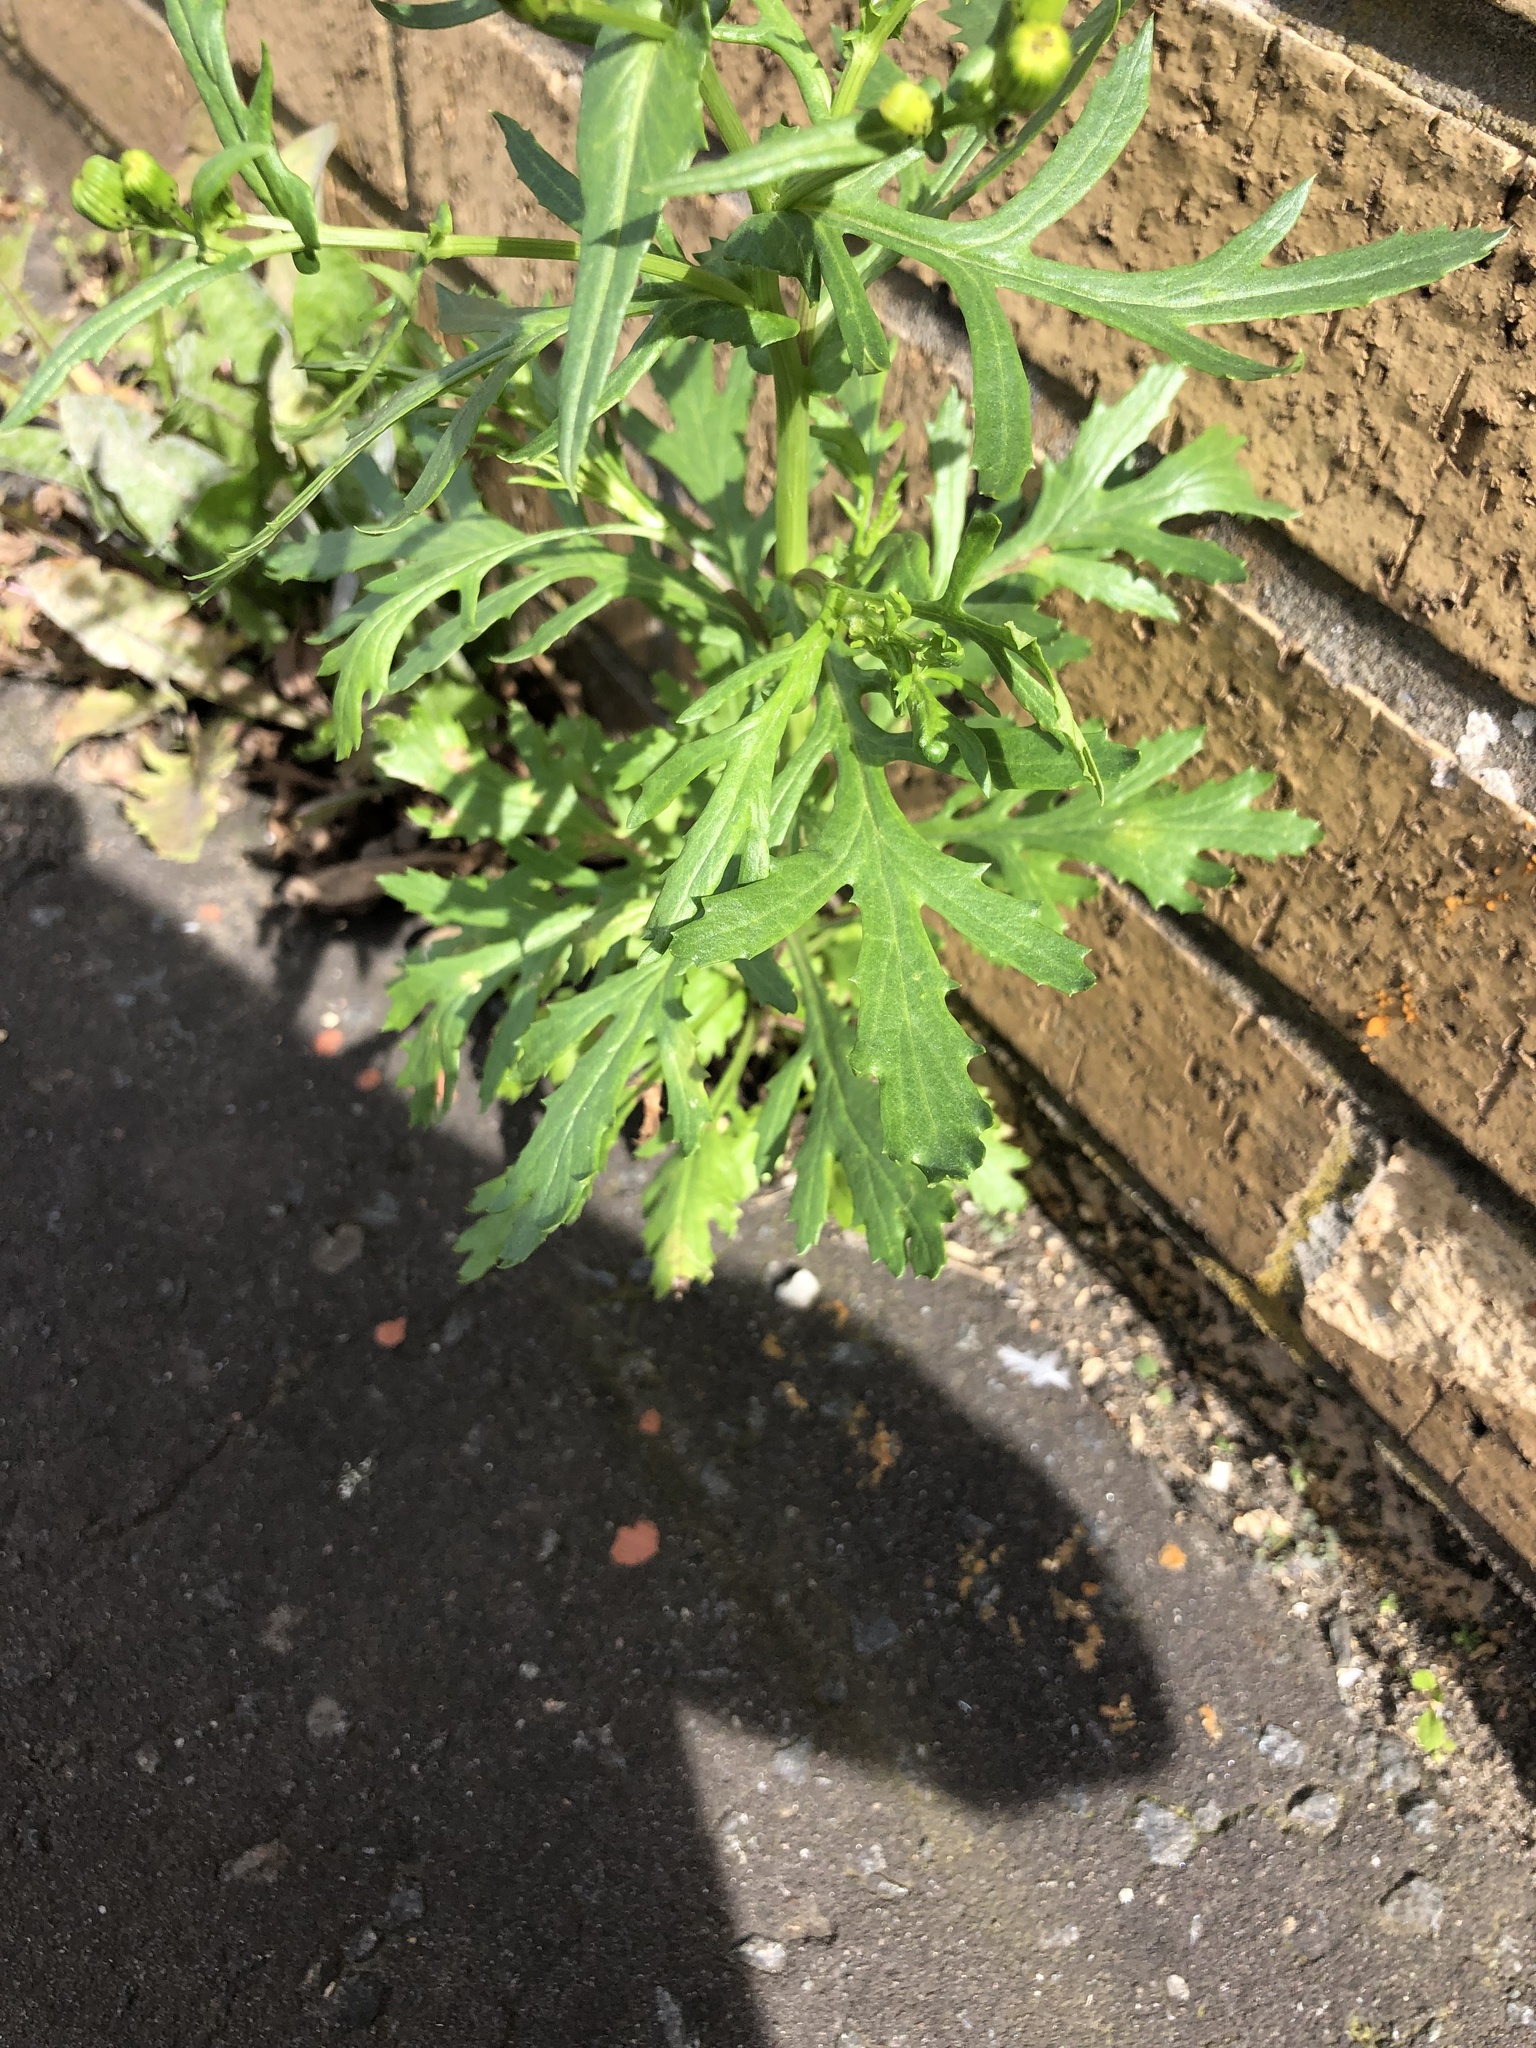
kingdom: Plantae
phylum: Tracheophyta
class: Magnoliopsida
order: Asterales
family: Asteraceae
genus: Senecio
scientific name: Senecio squalidus
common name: Oxford ragwort
